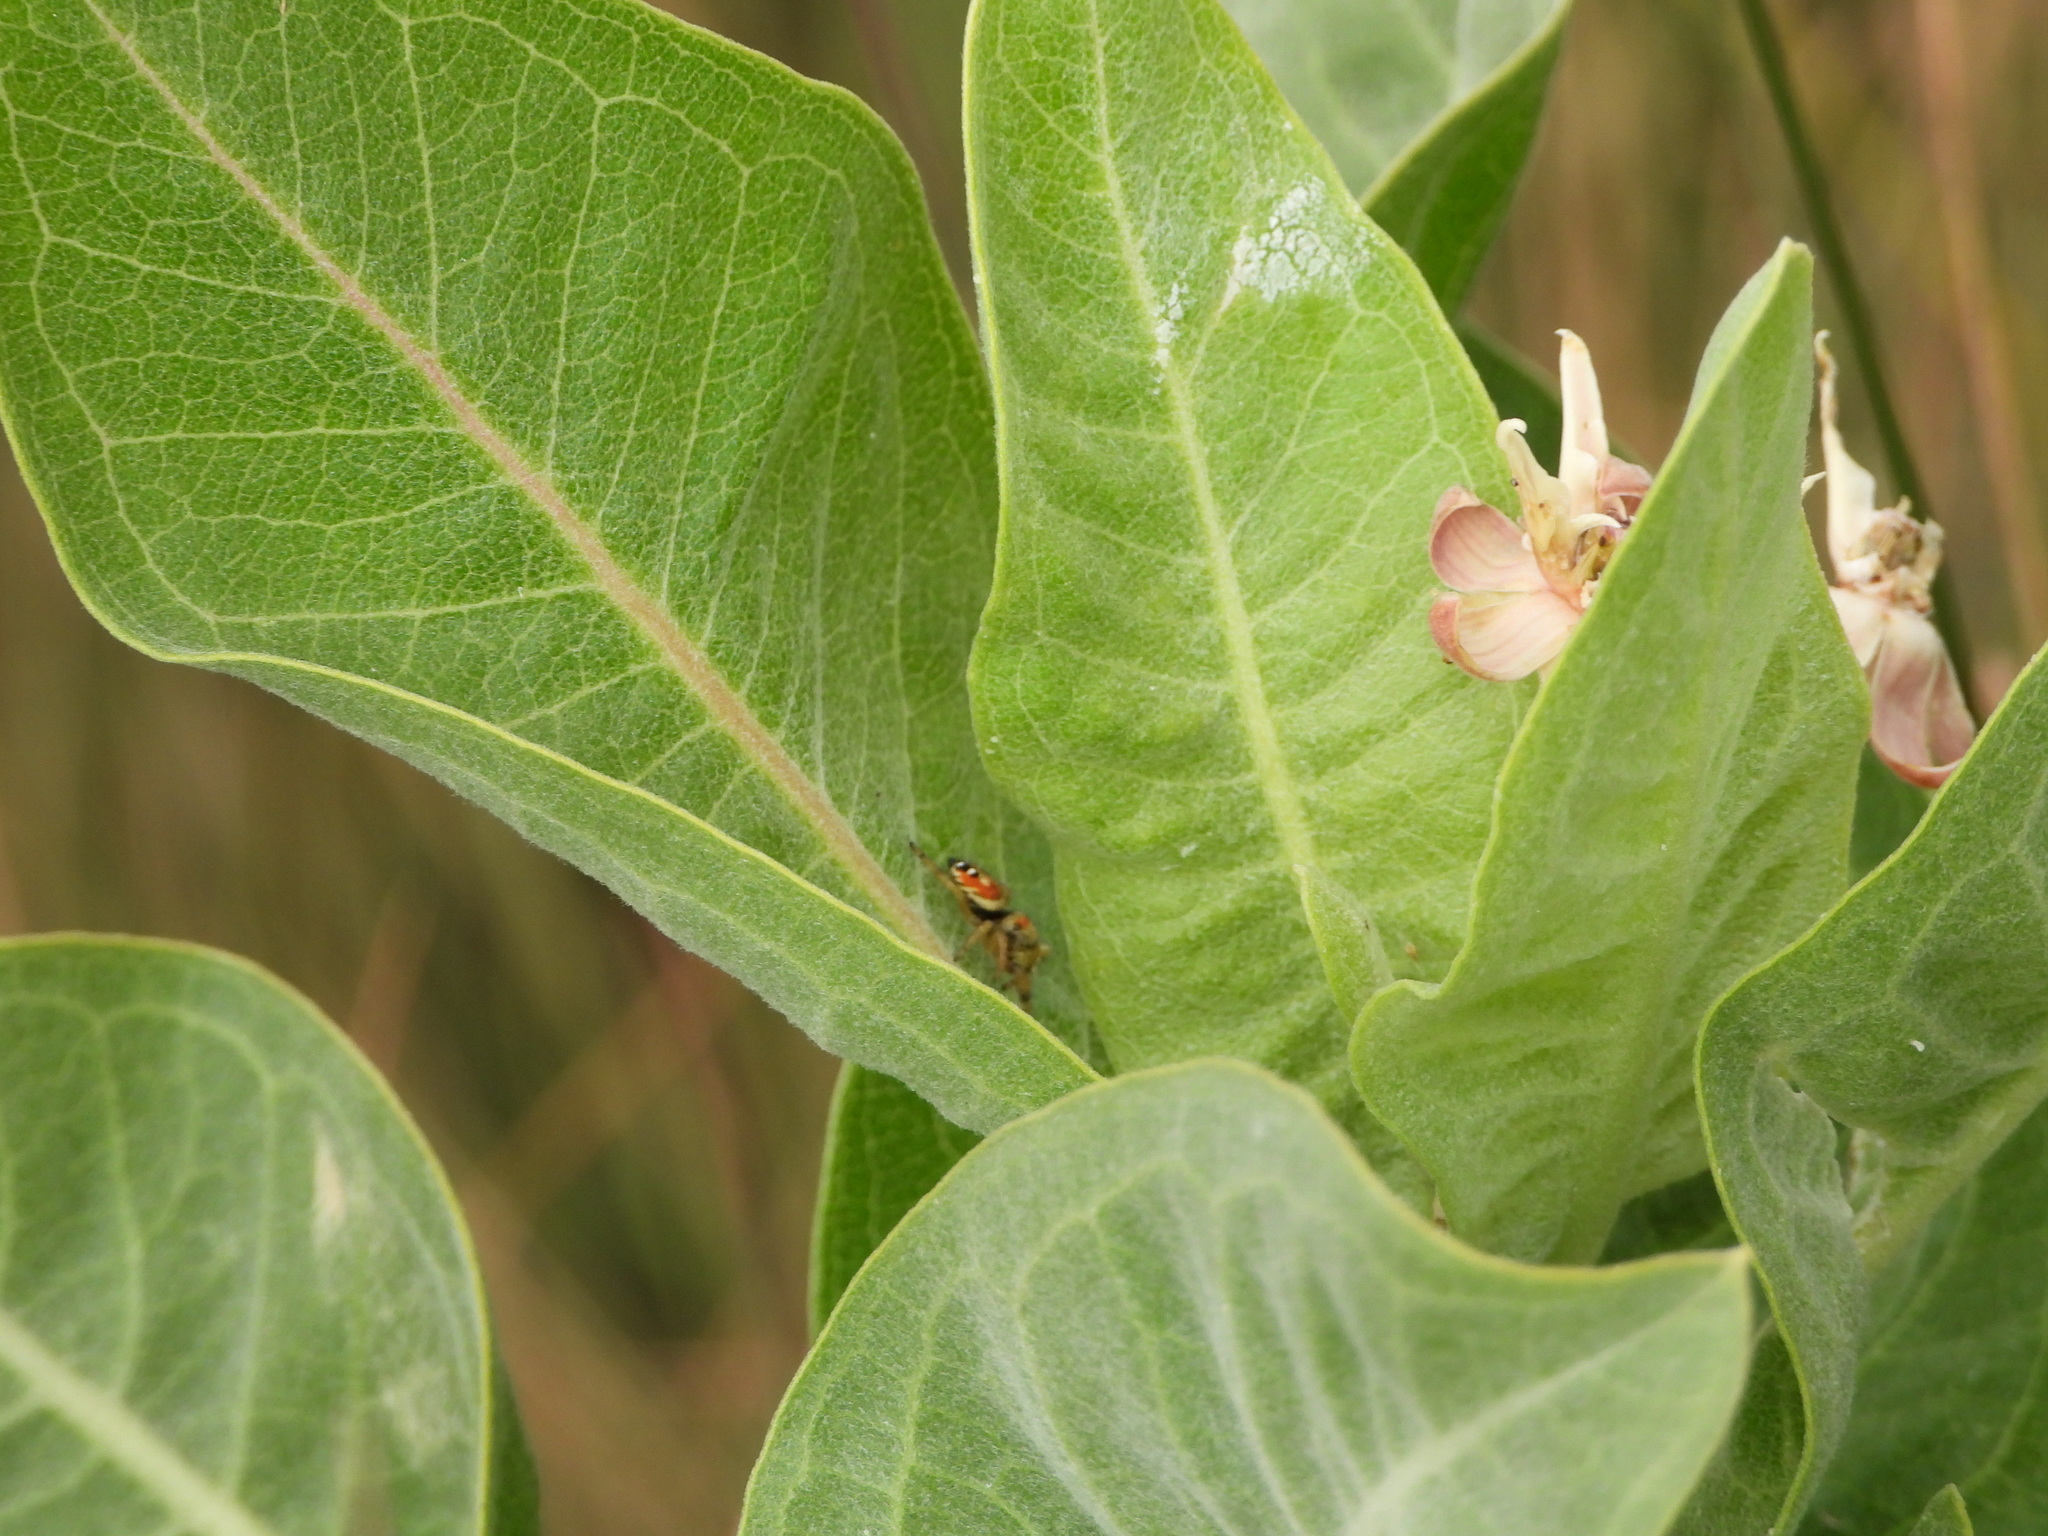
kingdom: Animalia
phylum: Arthropoda
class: Arachnida
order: Araneae
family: Salticidae
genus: Phidippus
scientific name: Phidippus apacheanus
